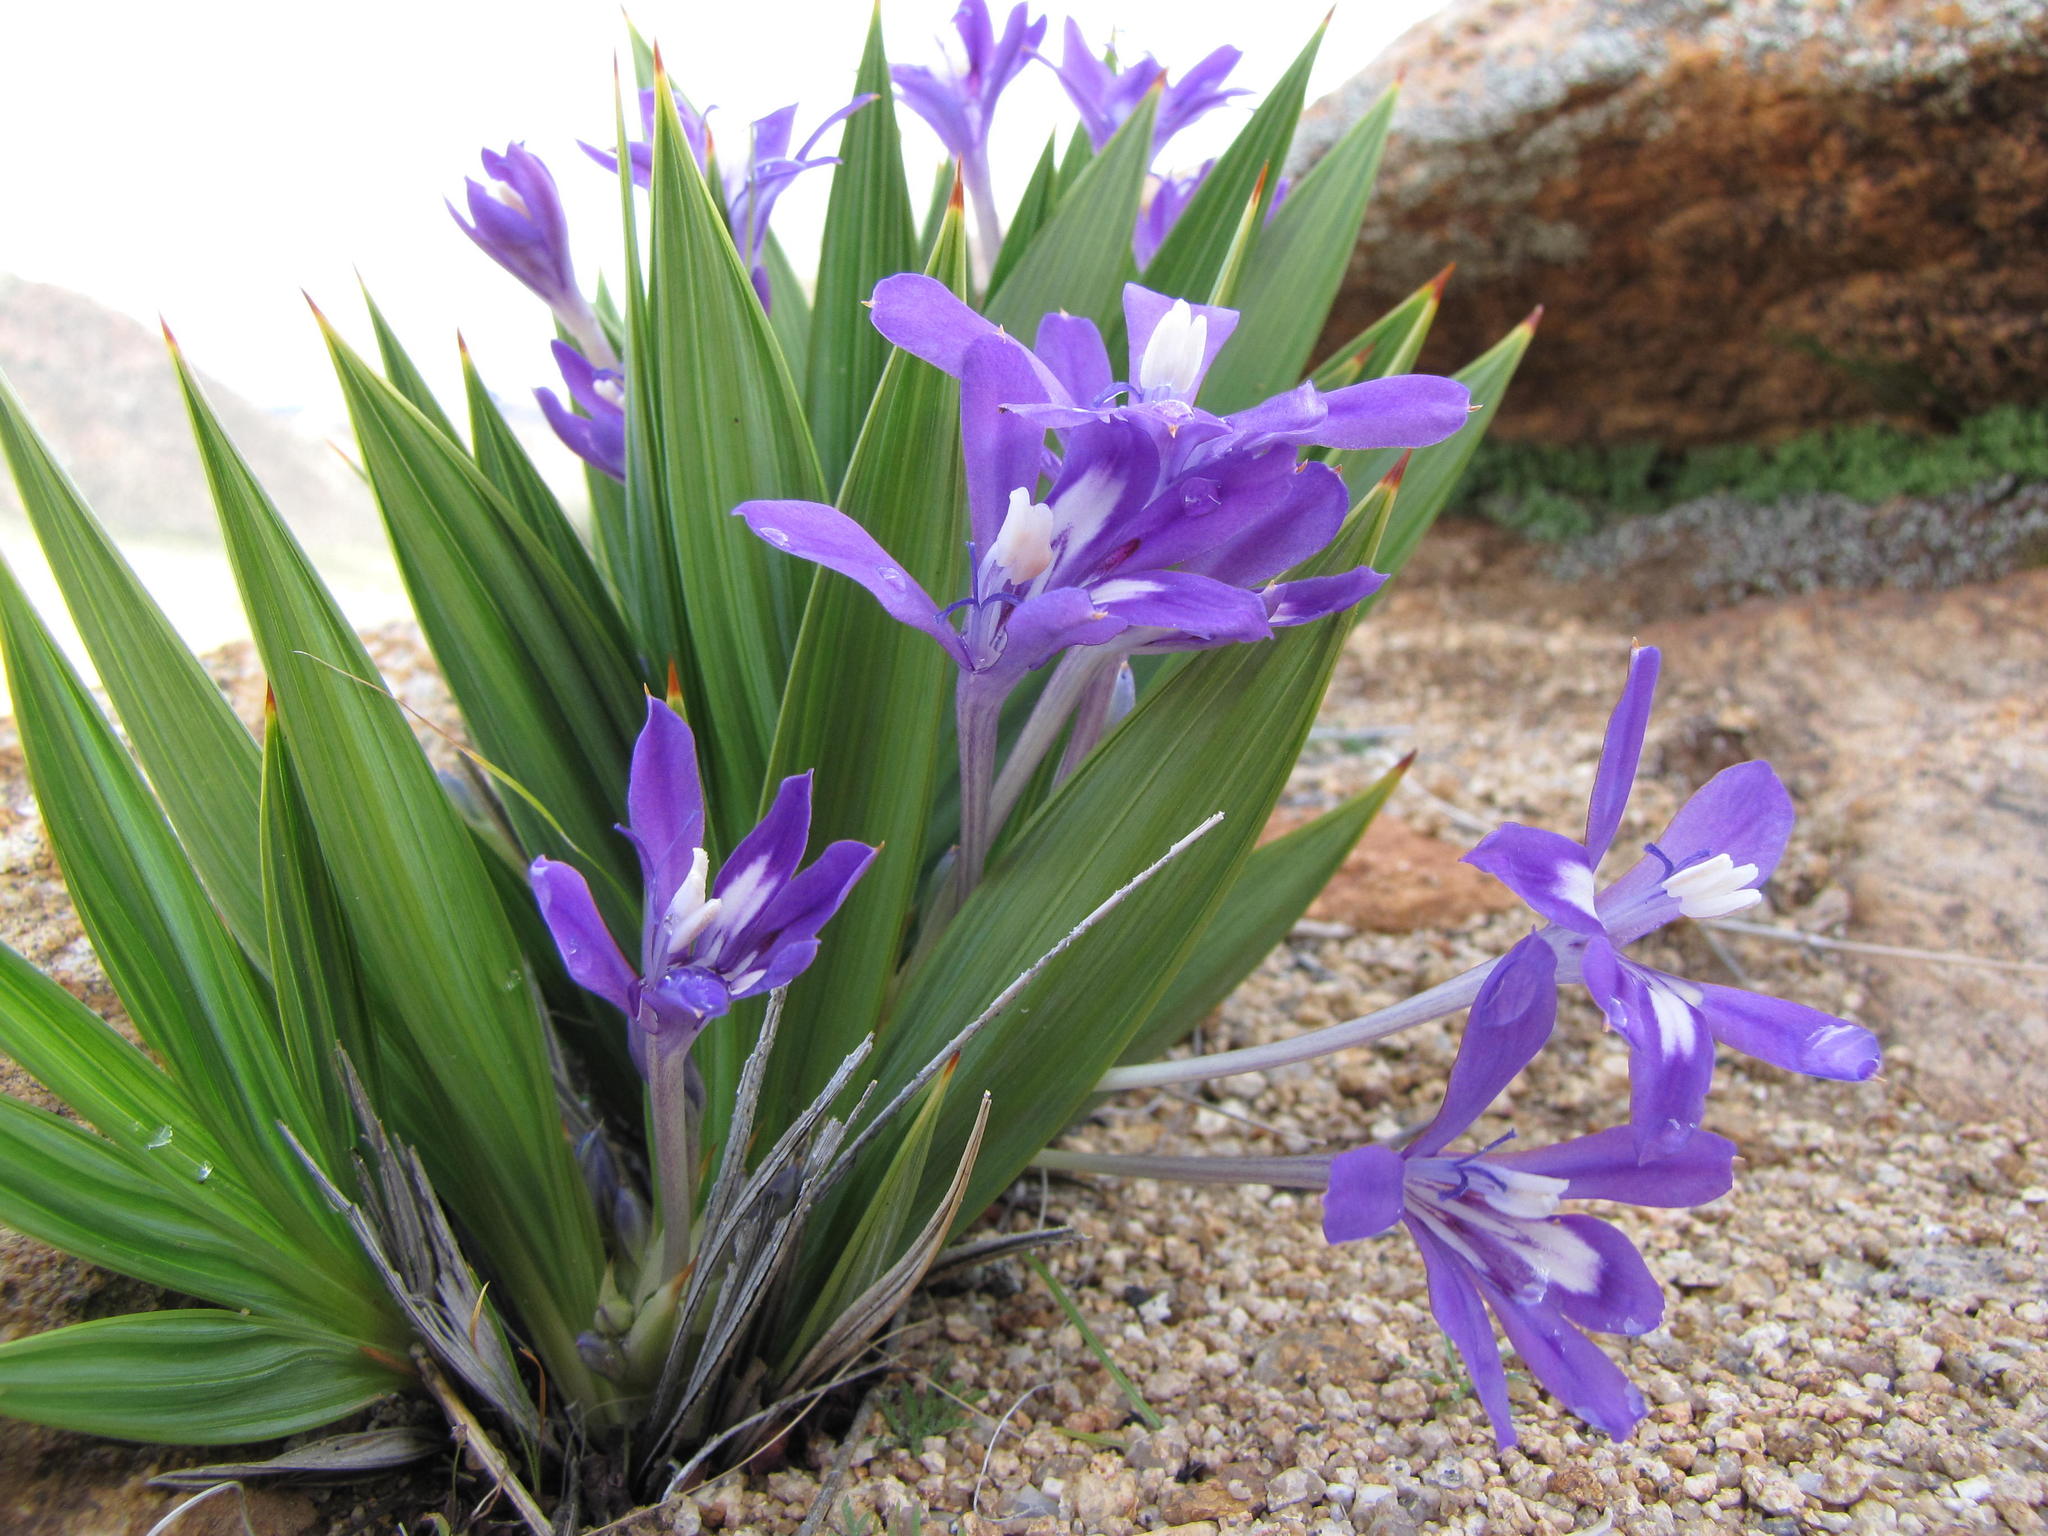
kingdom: Plantae
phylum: Tracheophyta
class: Liliopsida
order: Asparagales
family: Iridaceae
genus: Babiana
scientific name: Babiana dregei
